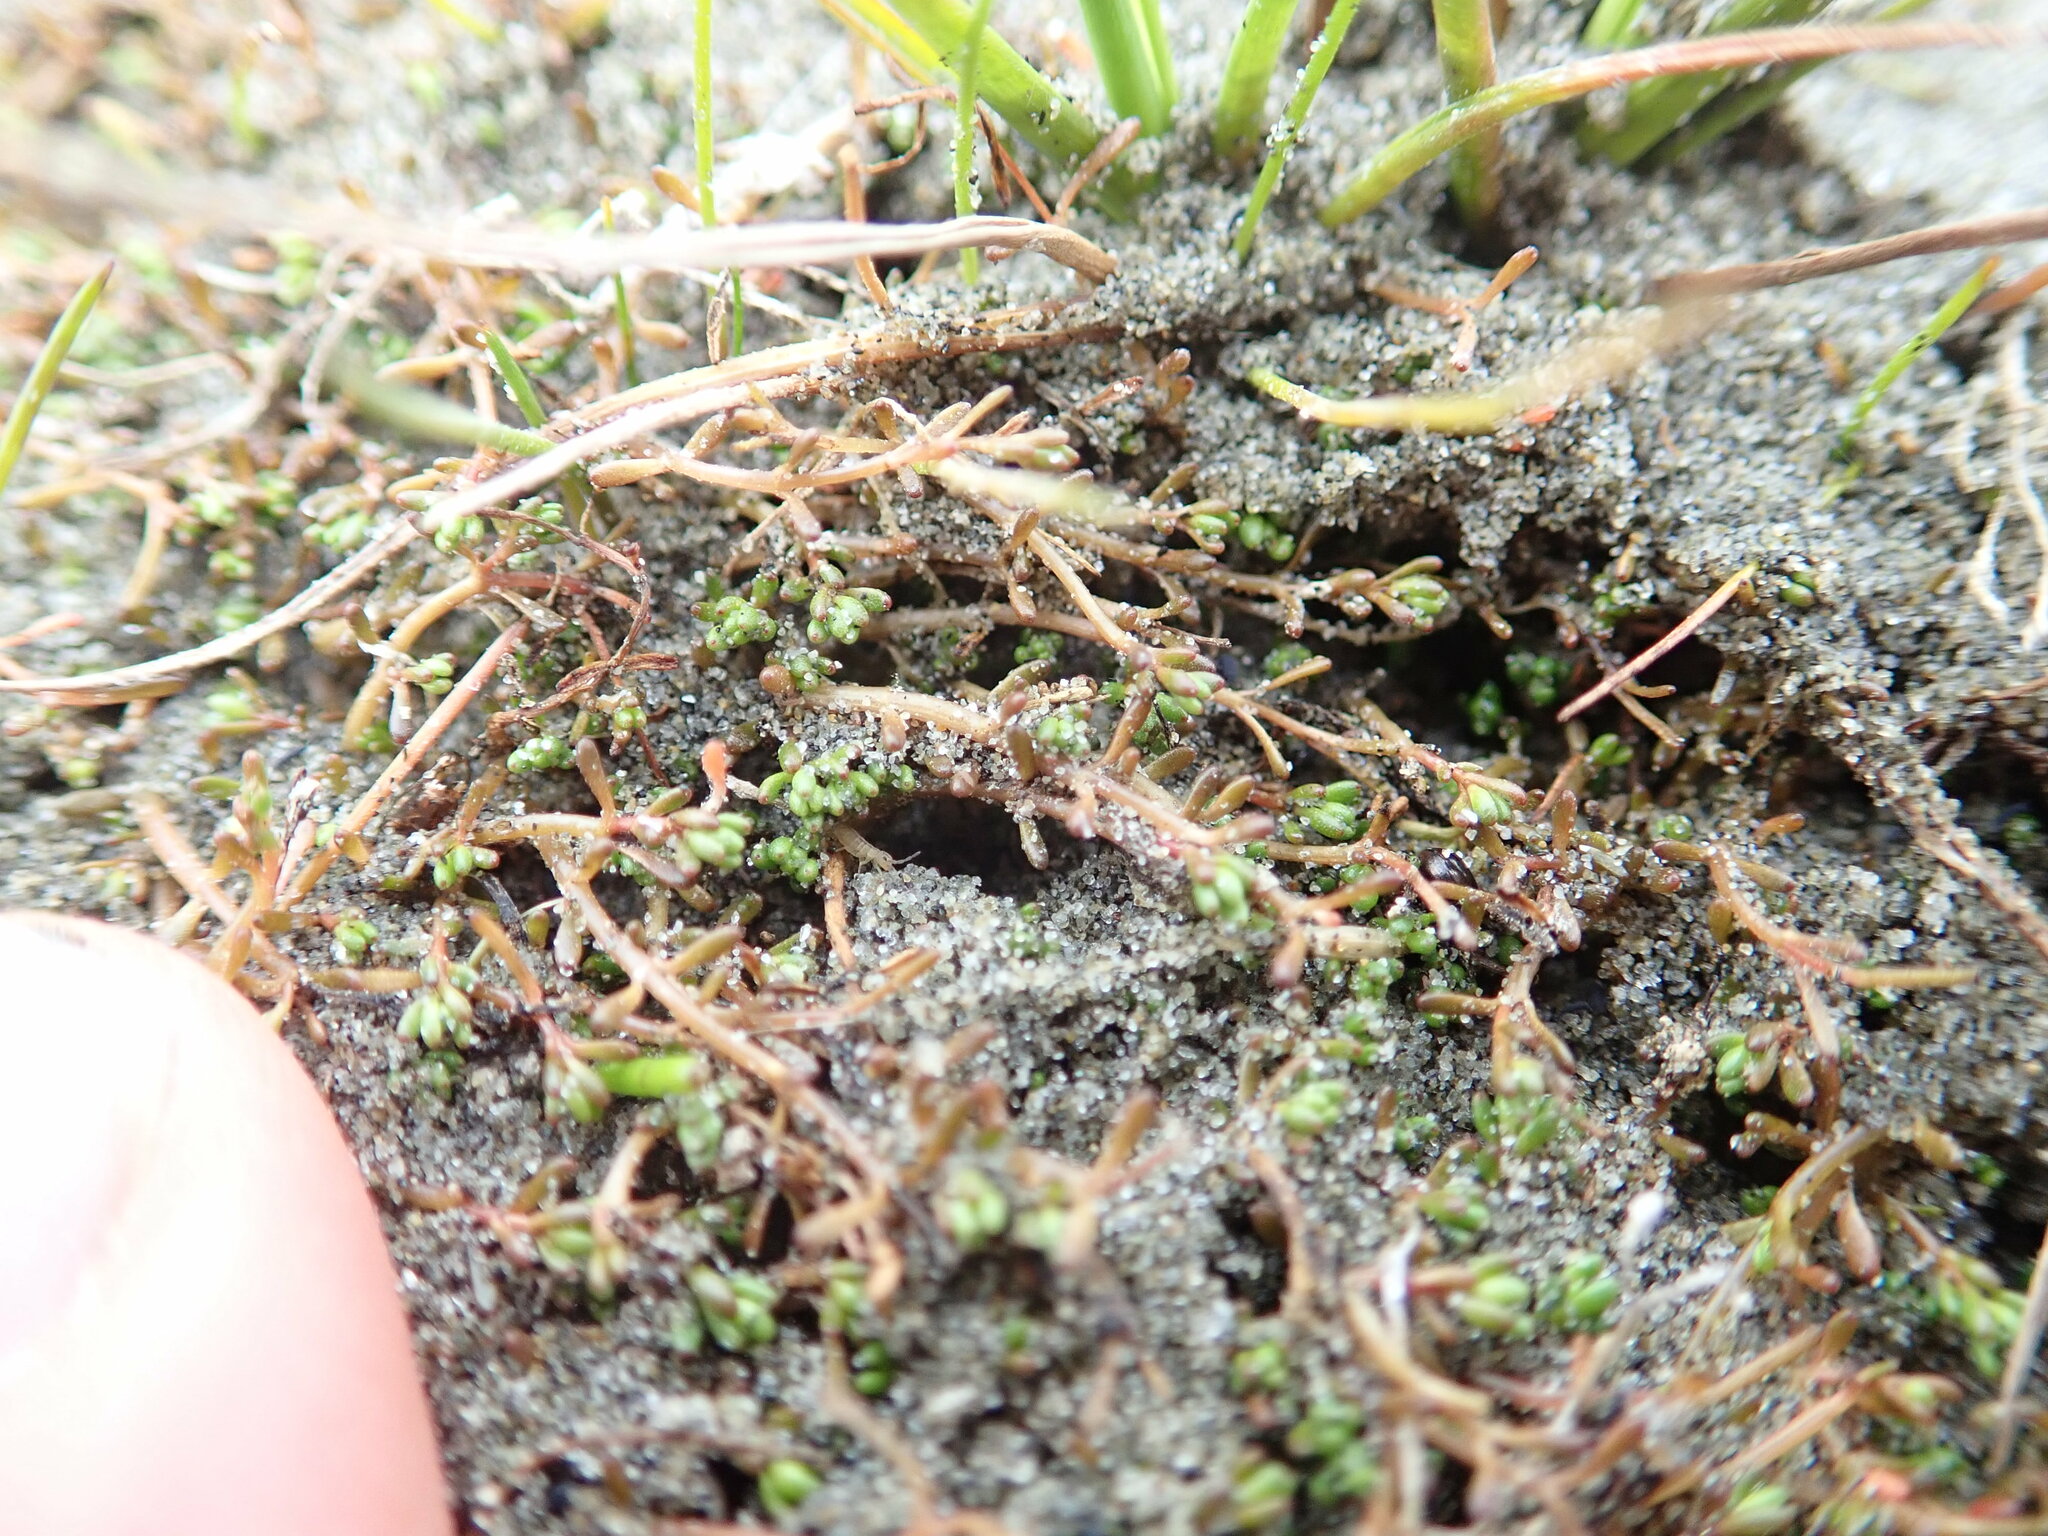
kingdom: Plantae
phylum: Tracheophyta
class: Magnoliopsida
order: Saxifragales
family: Haloragaceae
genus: Myriophyllum
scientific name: Myriophyllum votschii
